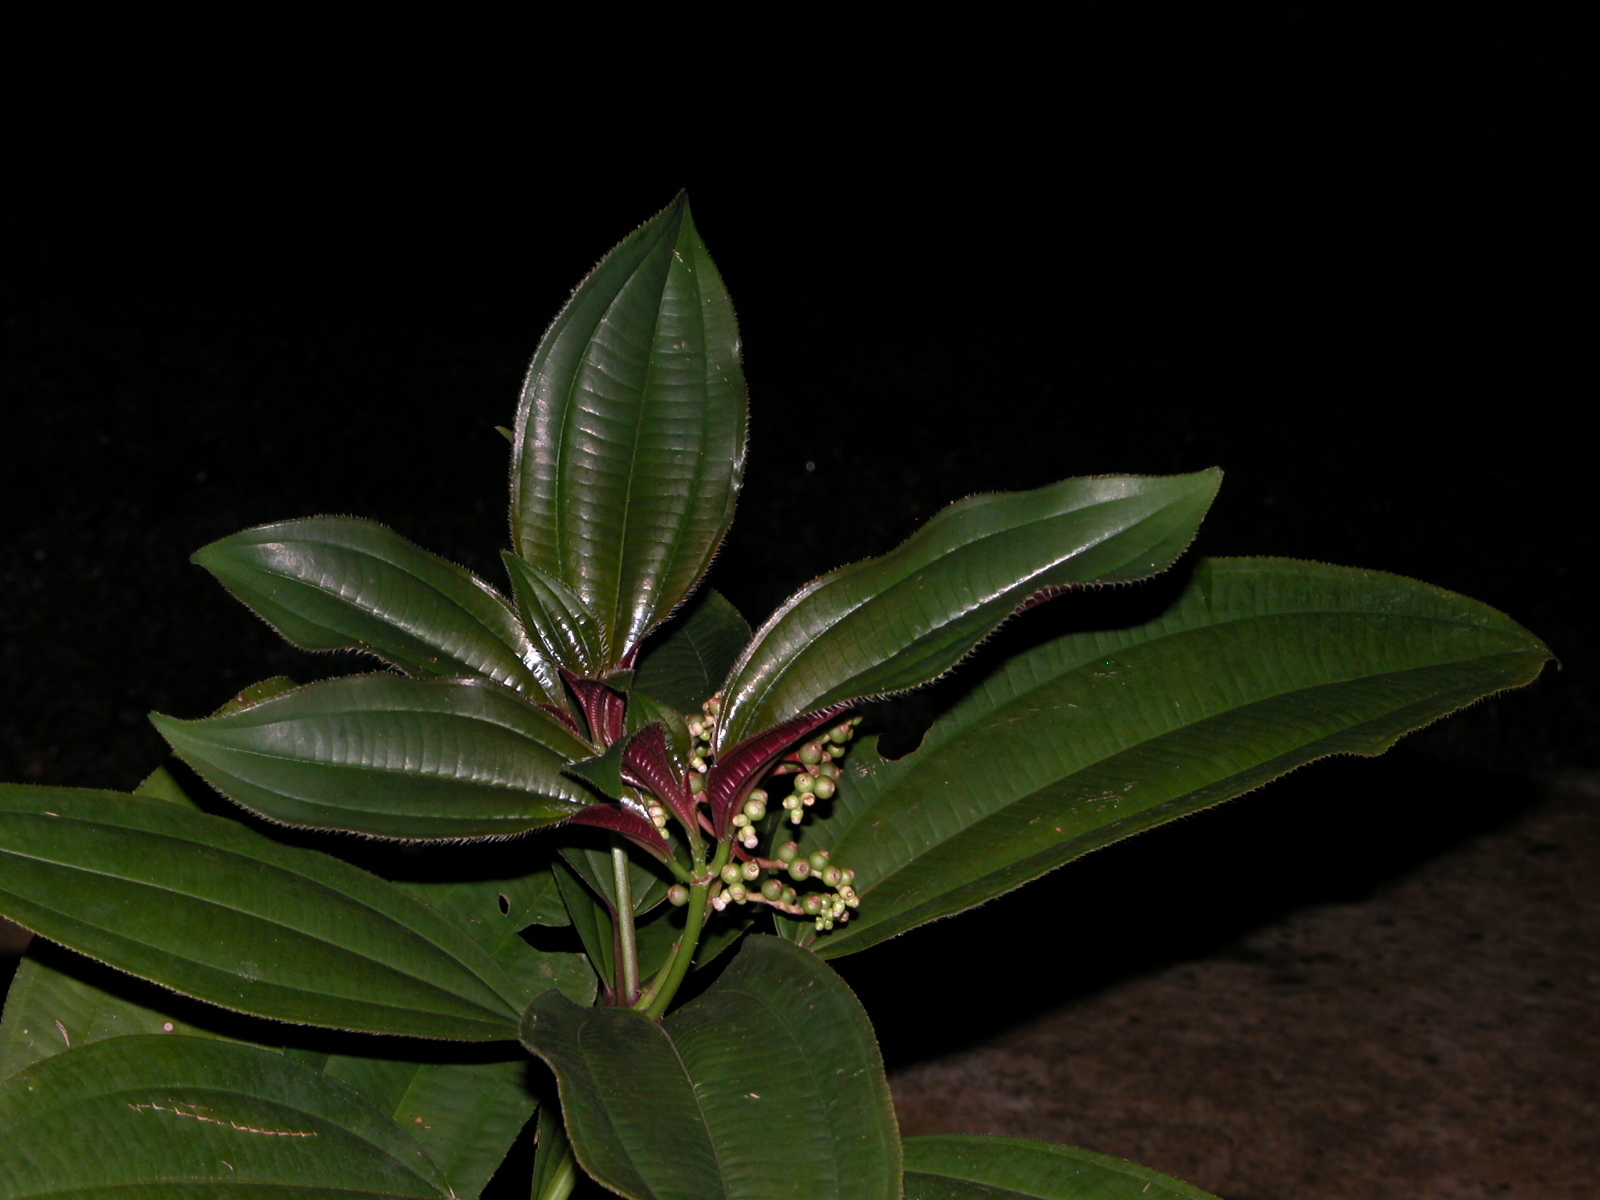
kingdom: Plantae
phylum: Tracheophyta
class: Magnoliopsida
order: Myrtales
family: Melastomataceae
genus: Miconia
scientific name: Miconia oinochrophylla
